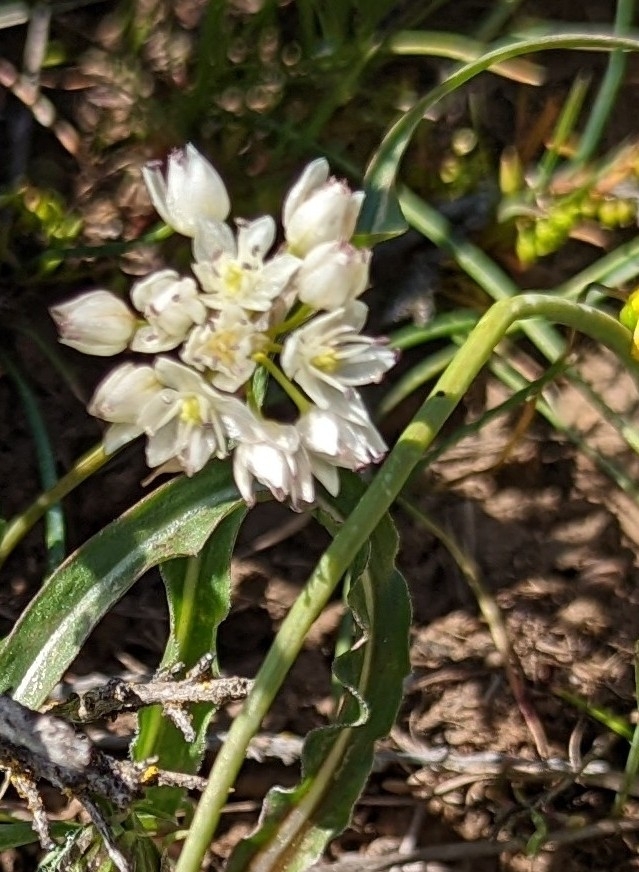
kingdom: Plantae
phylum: Tracheophyta
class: Liliopsida
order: Asparagales
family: Amaryllidaceae
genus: Allium
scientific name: Allium macrum
